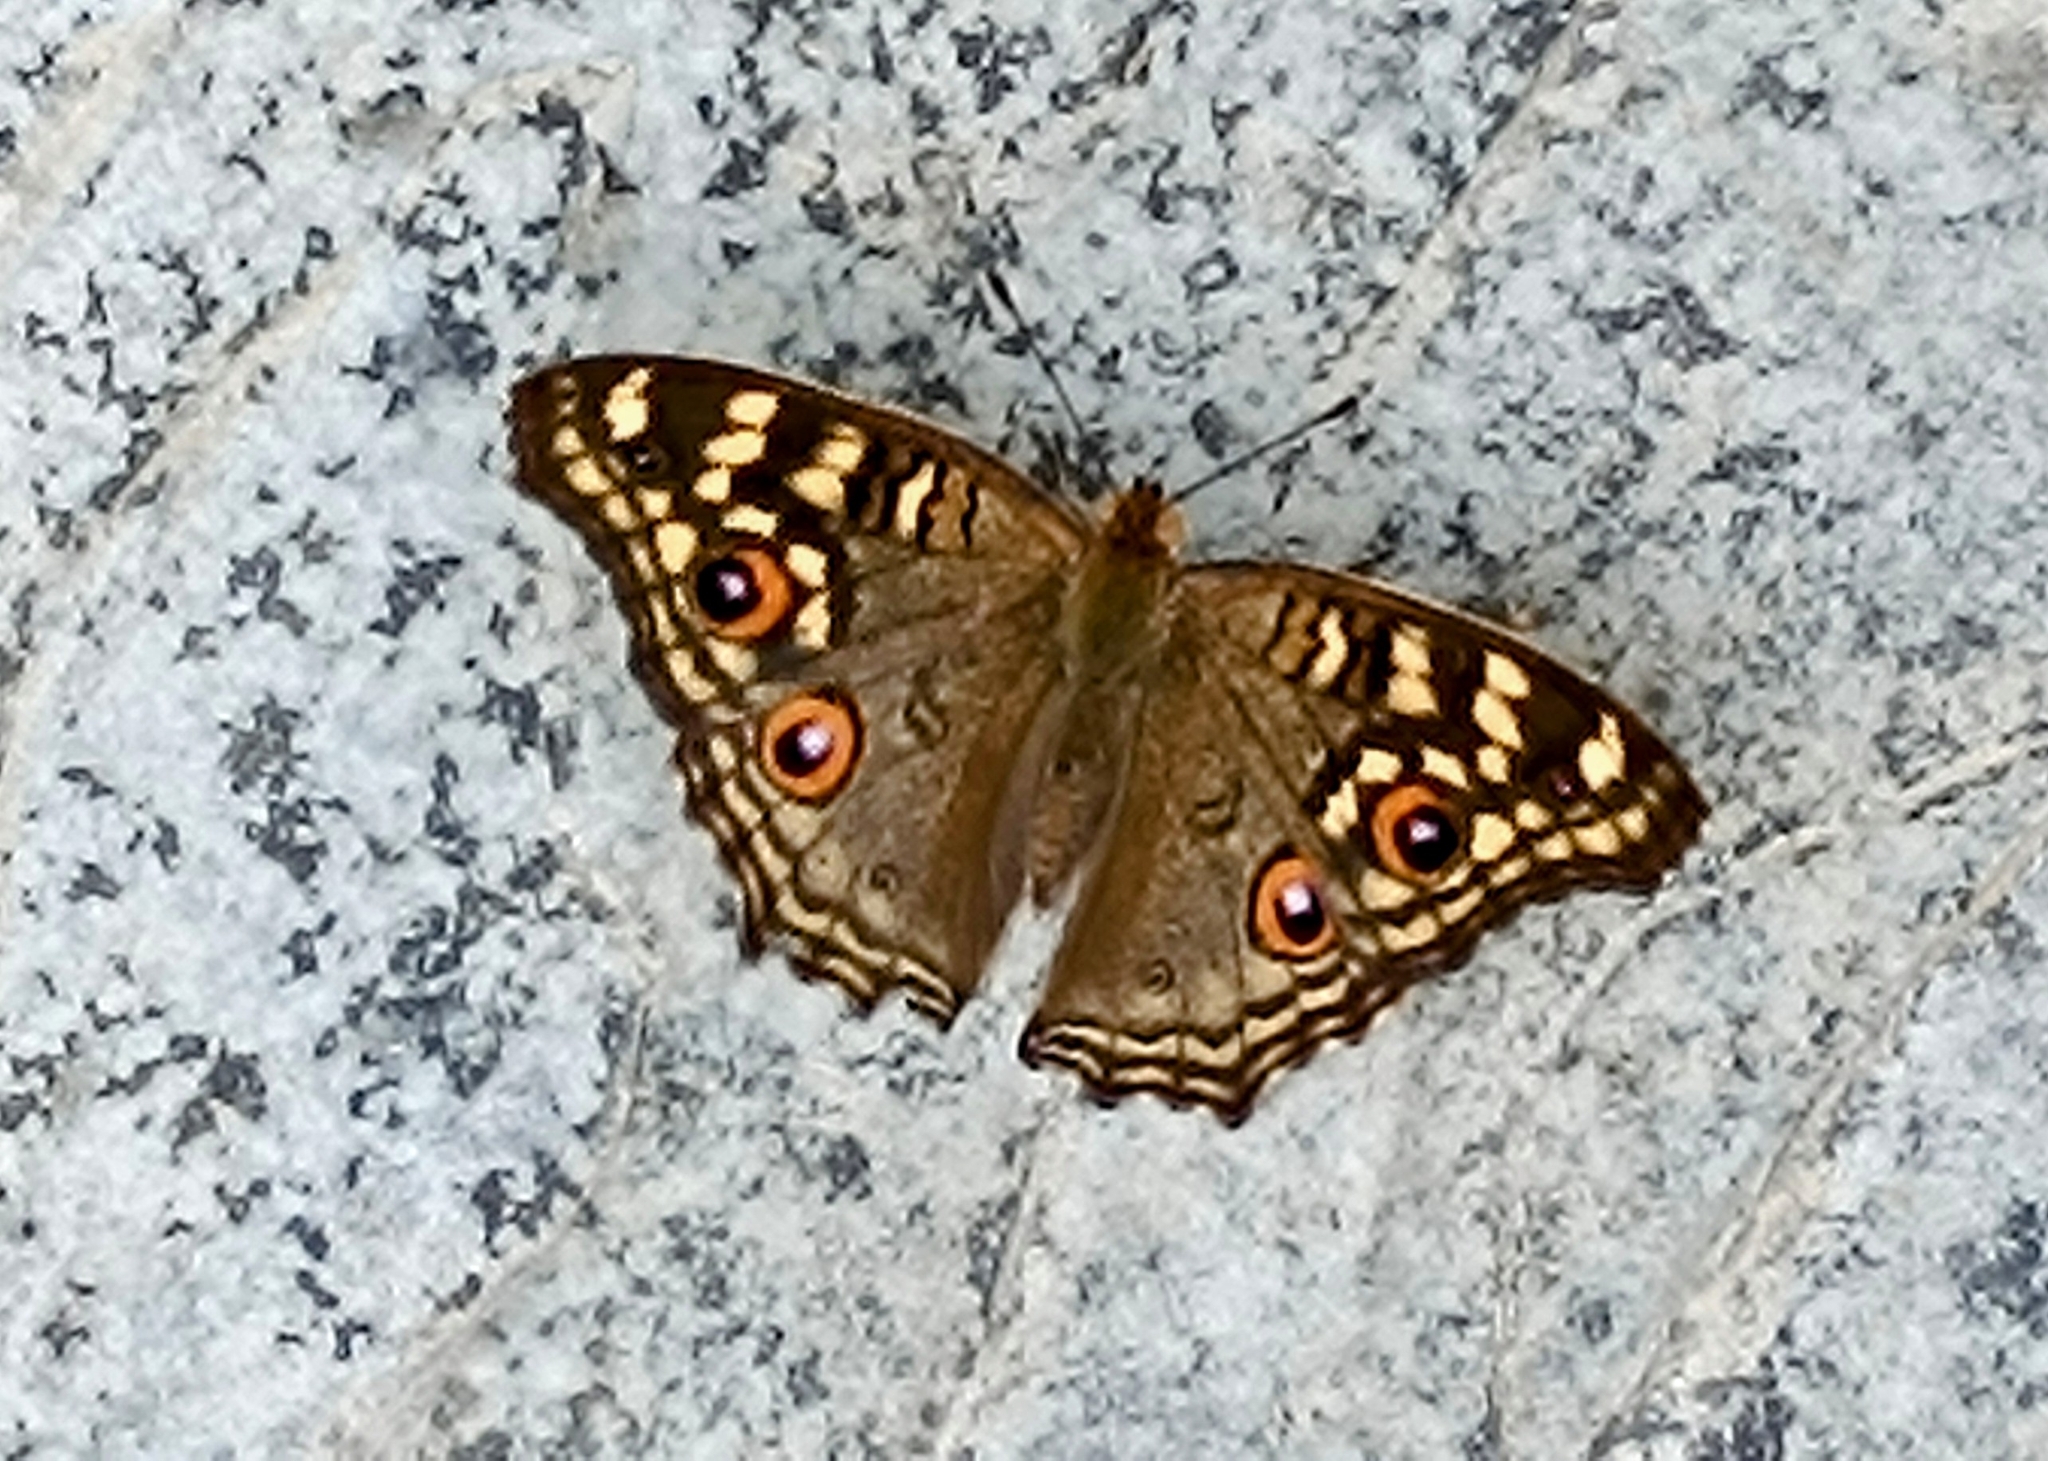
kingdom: Animalia
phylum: Arthropoda
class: Insecta
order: Lepidoptera
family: Nymphalidae
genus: Junonia
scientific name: Junonia lemonias
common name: Lemon pansy
